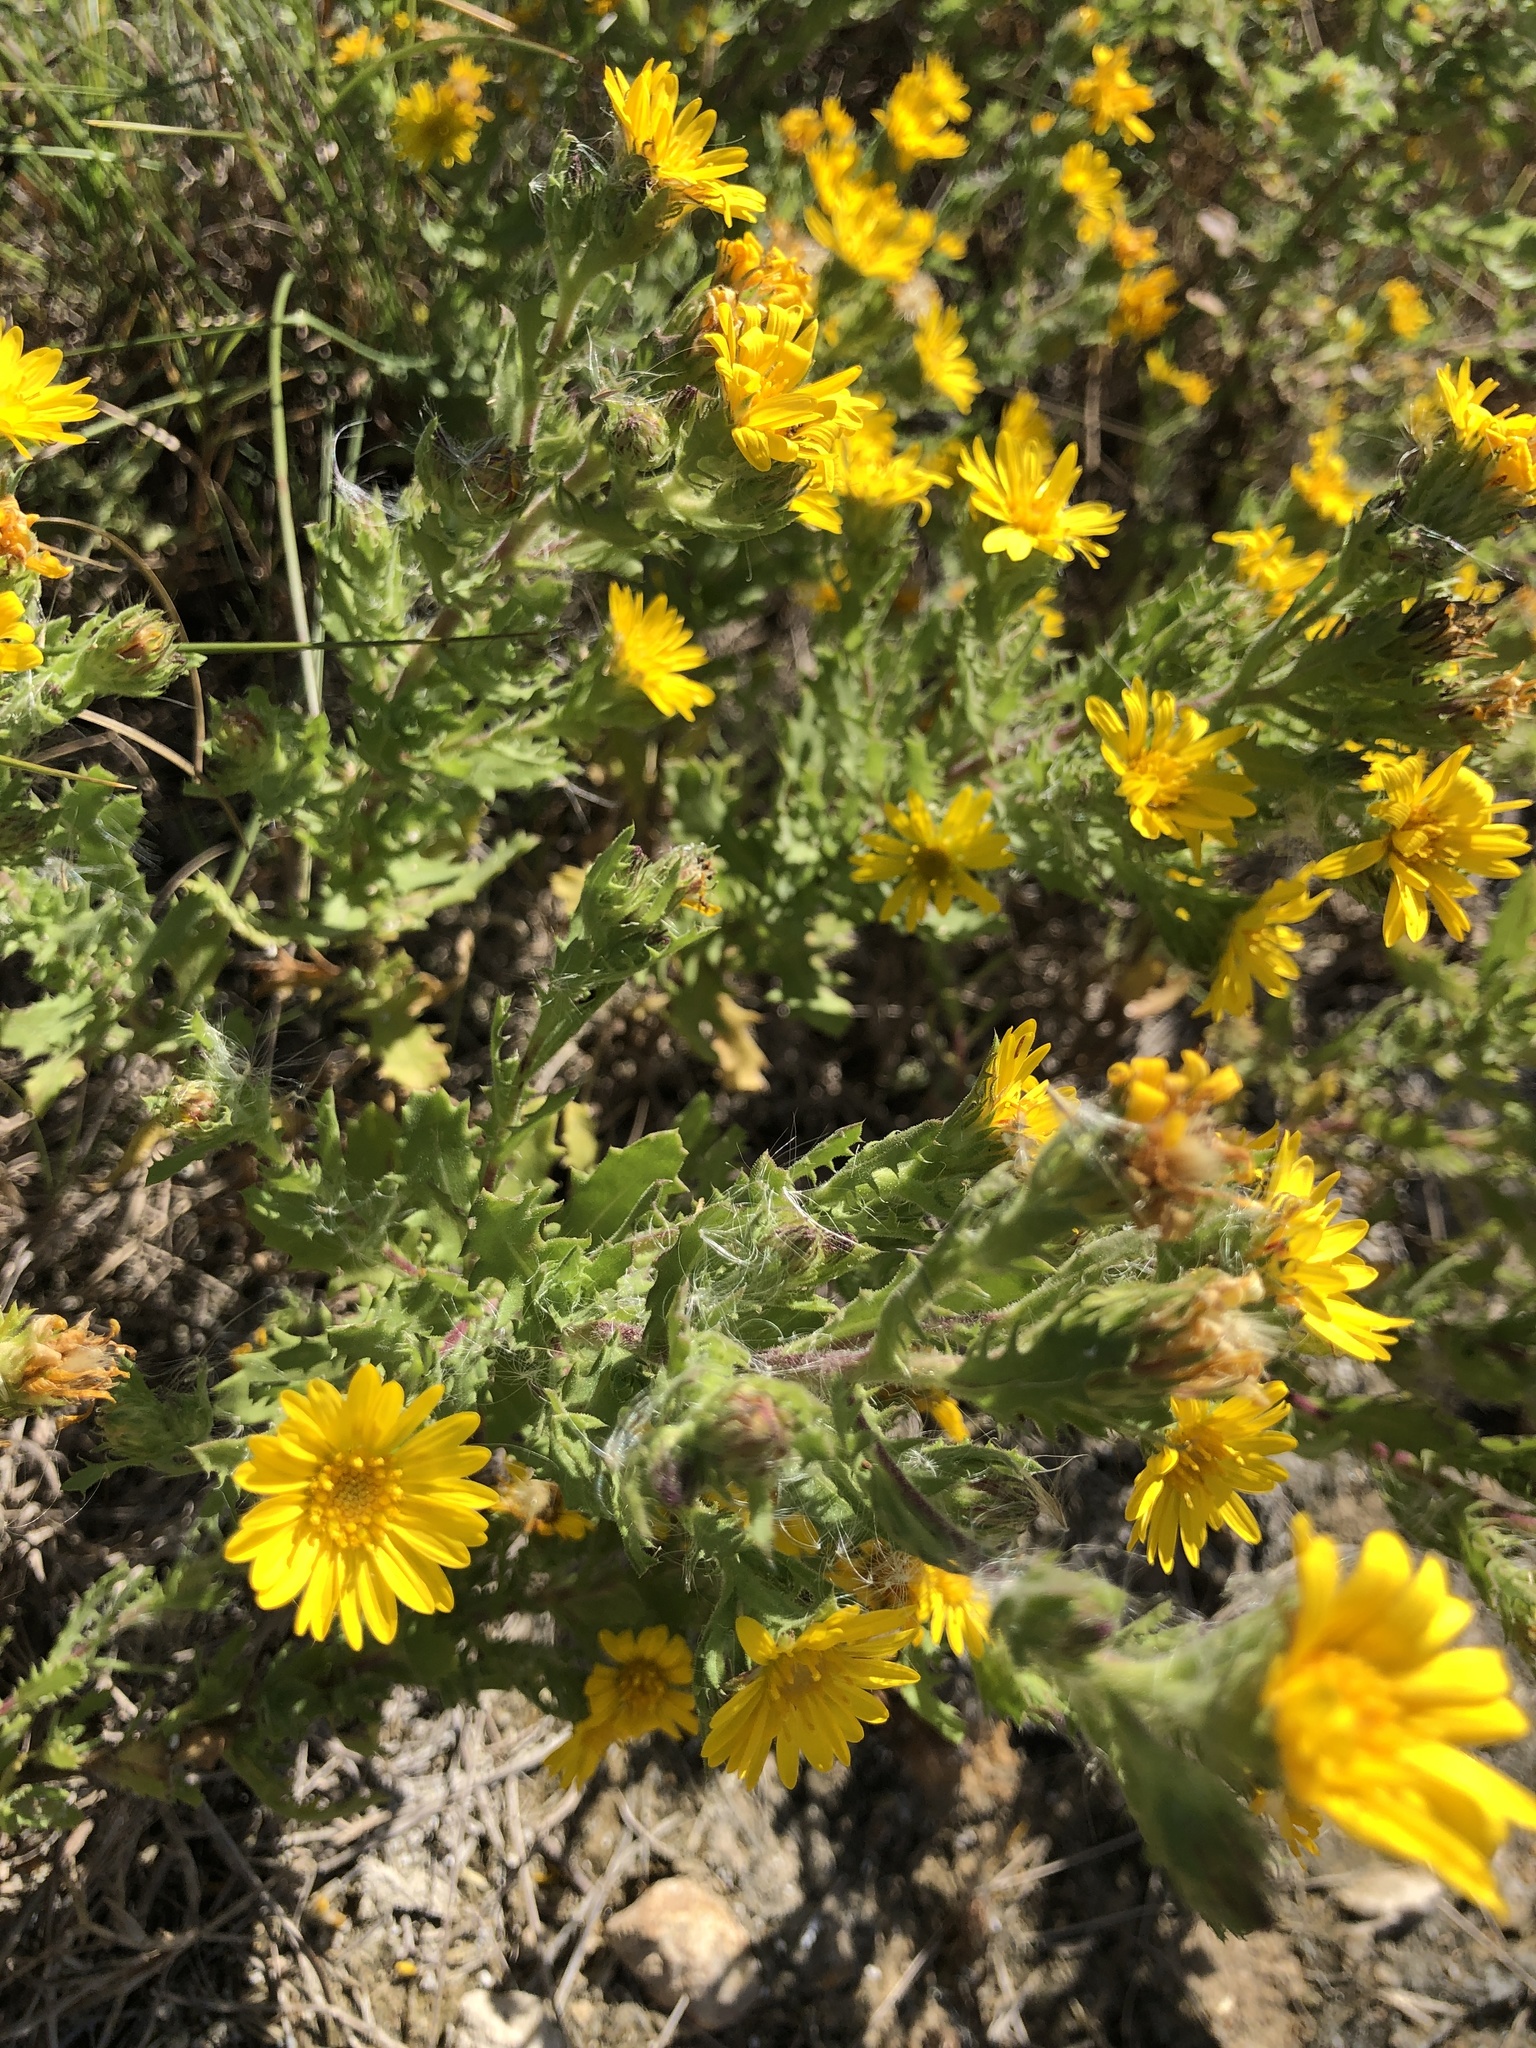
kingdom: Plantae
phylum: Tracheophyta
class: Magnoliopsida
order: Asterales
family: Asteraceae
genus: Rayjacksonia
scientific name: Rayjacksonia phyllocephala
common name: Gulf coast camphor daisy
